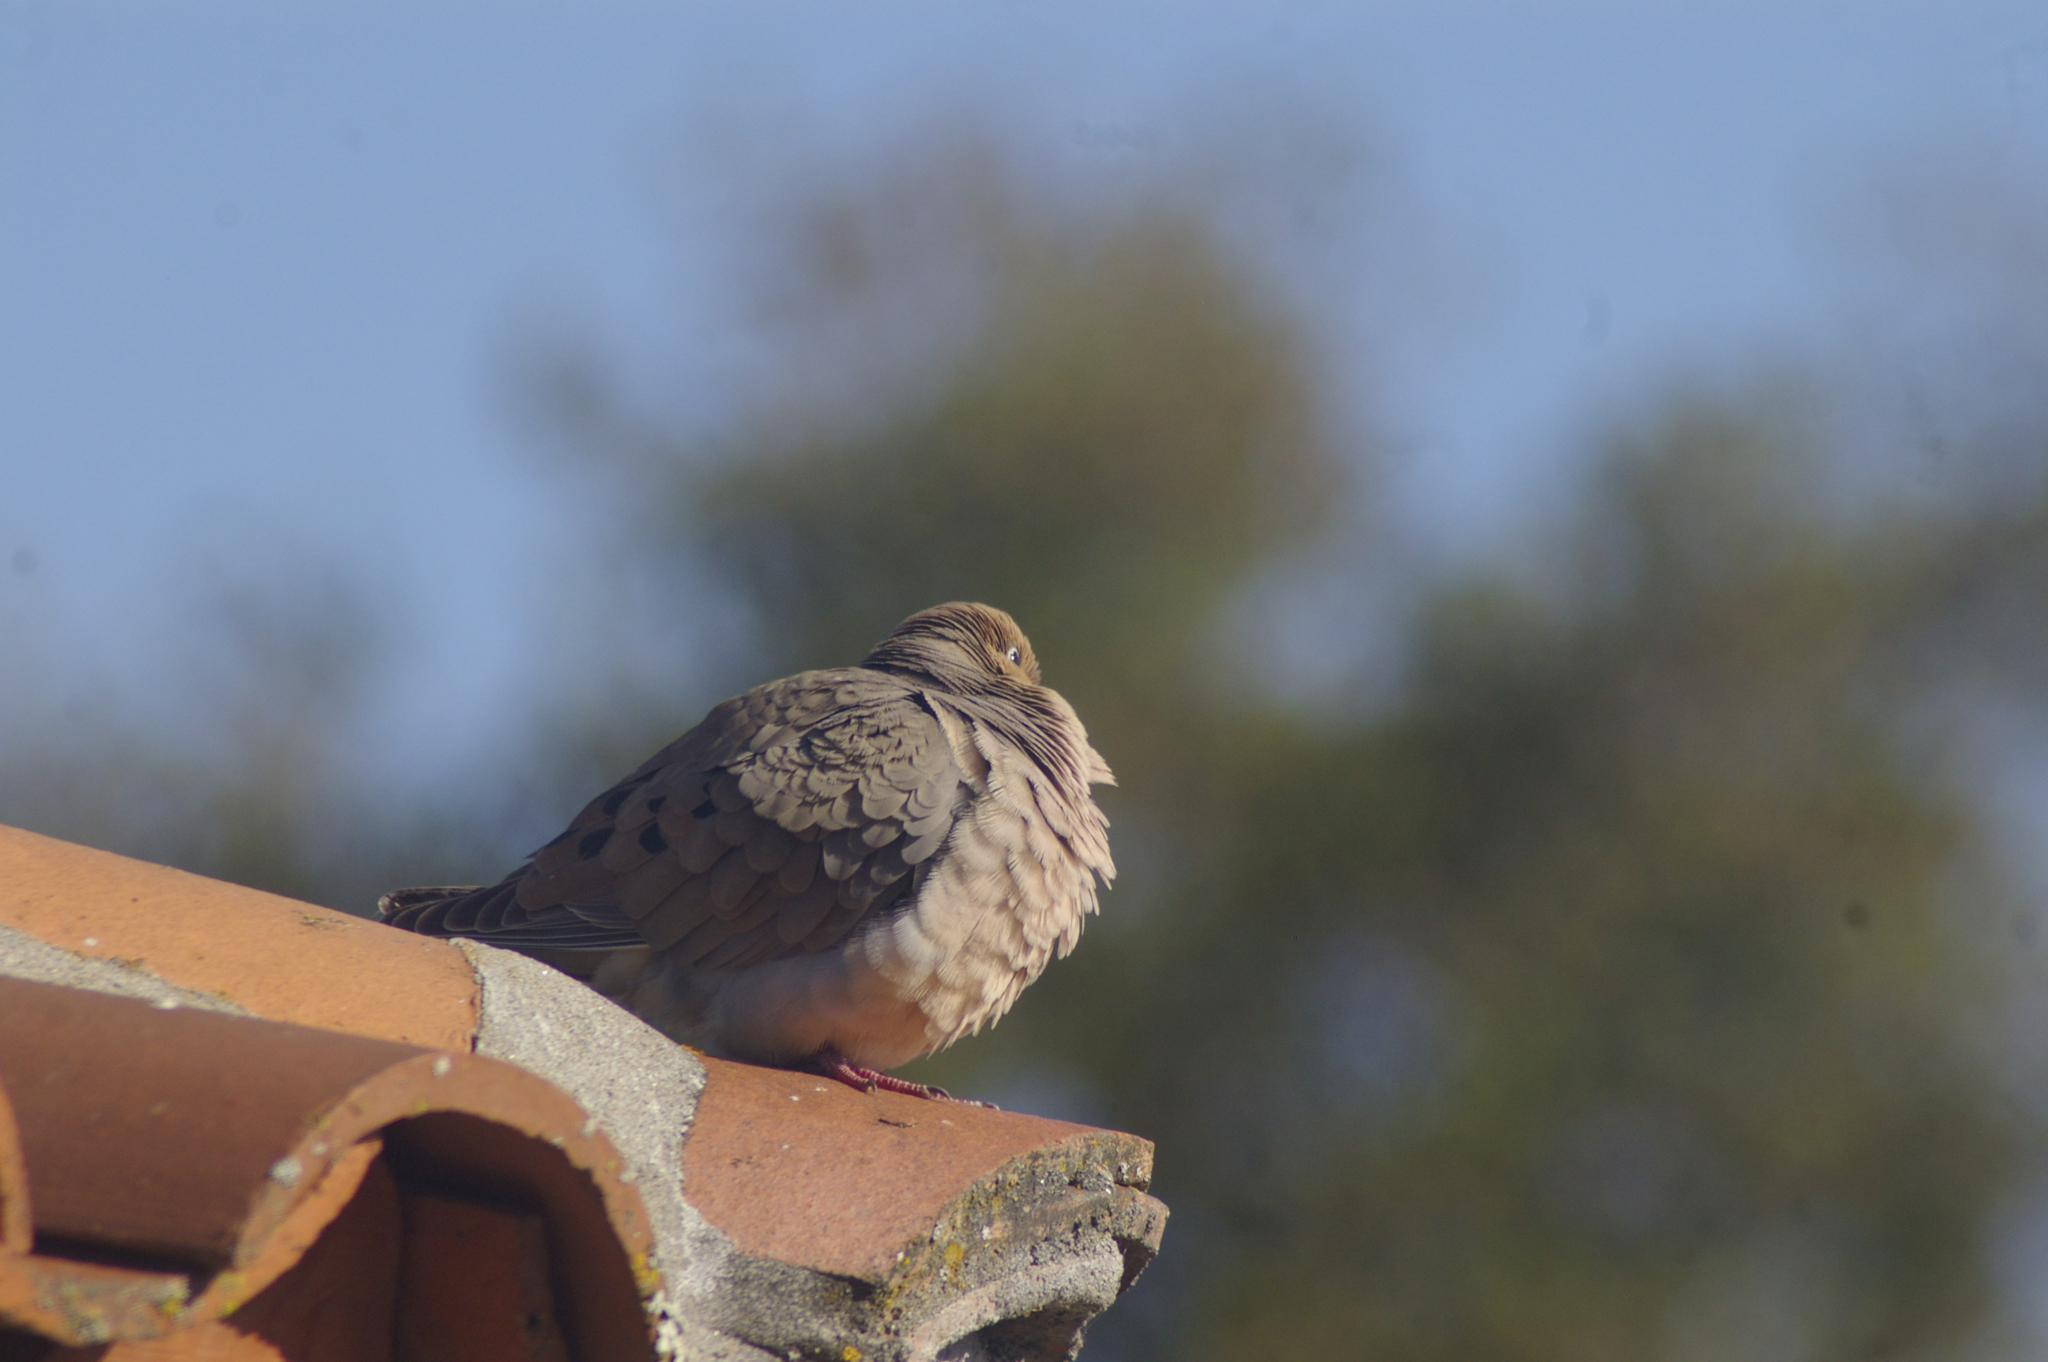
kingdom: Animalia
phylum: Chordata
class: Aves
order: Columbiformes
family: Columbidae
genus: Zenaida
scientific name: Zenaida macroura
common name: Mourning dove
